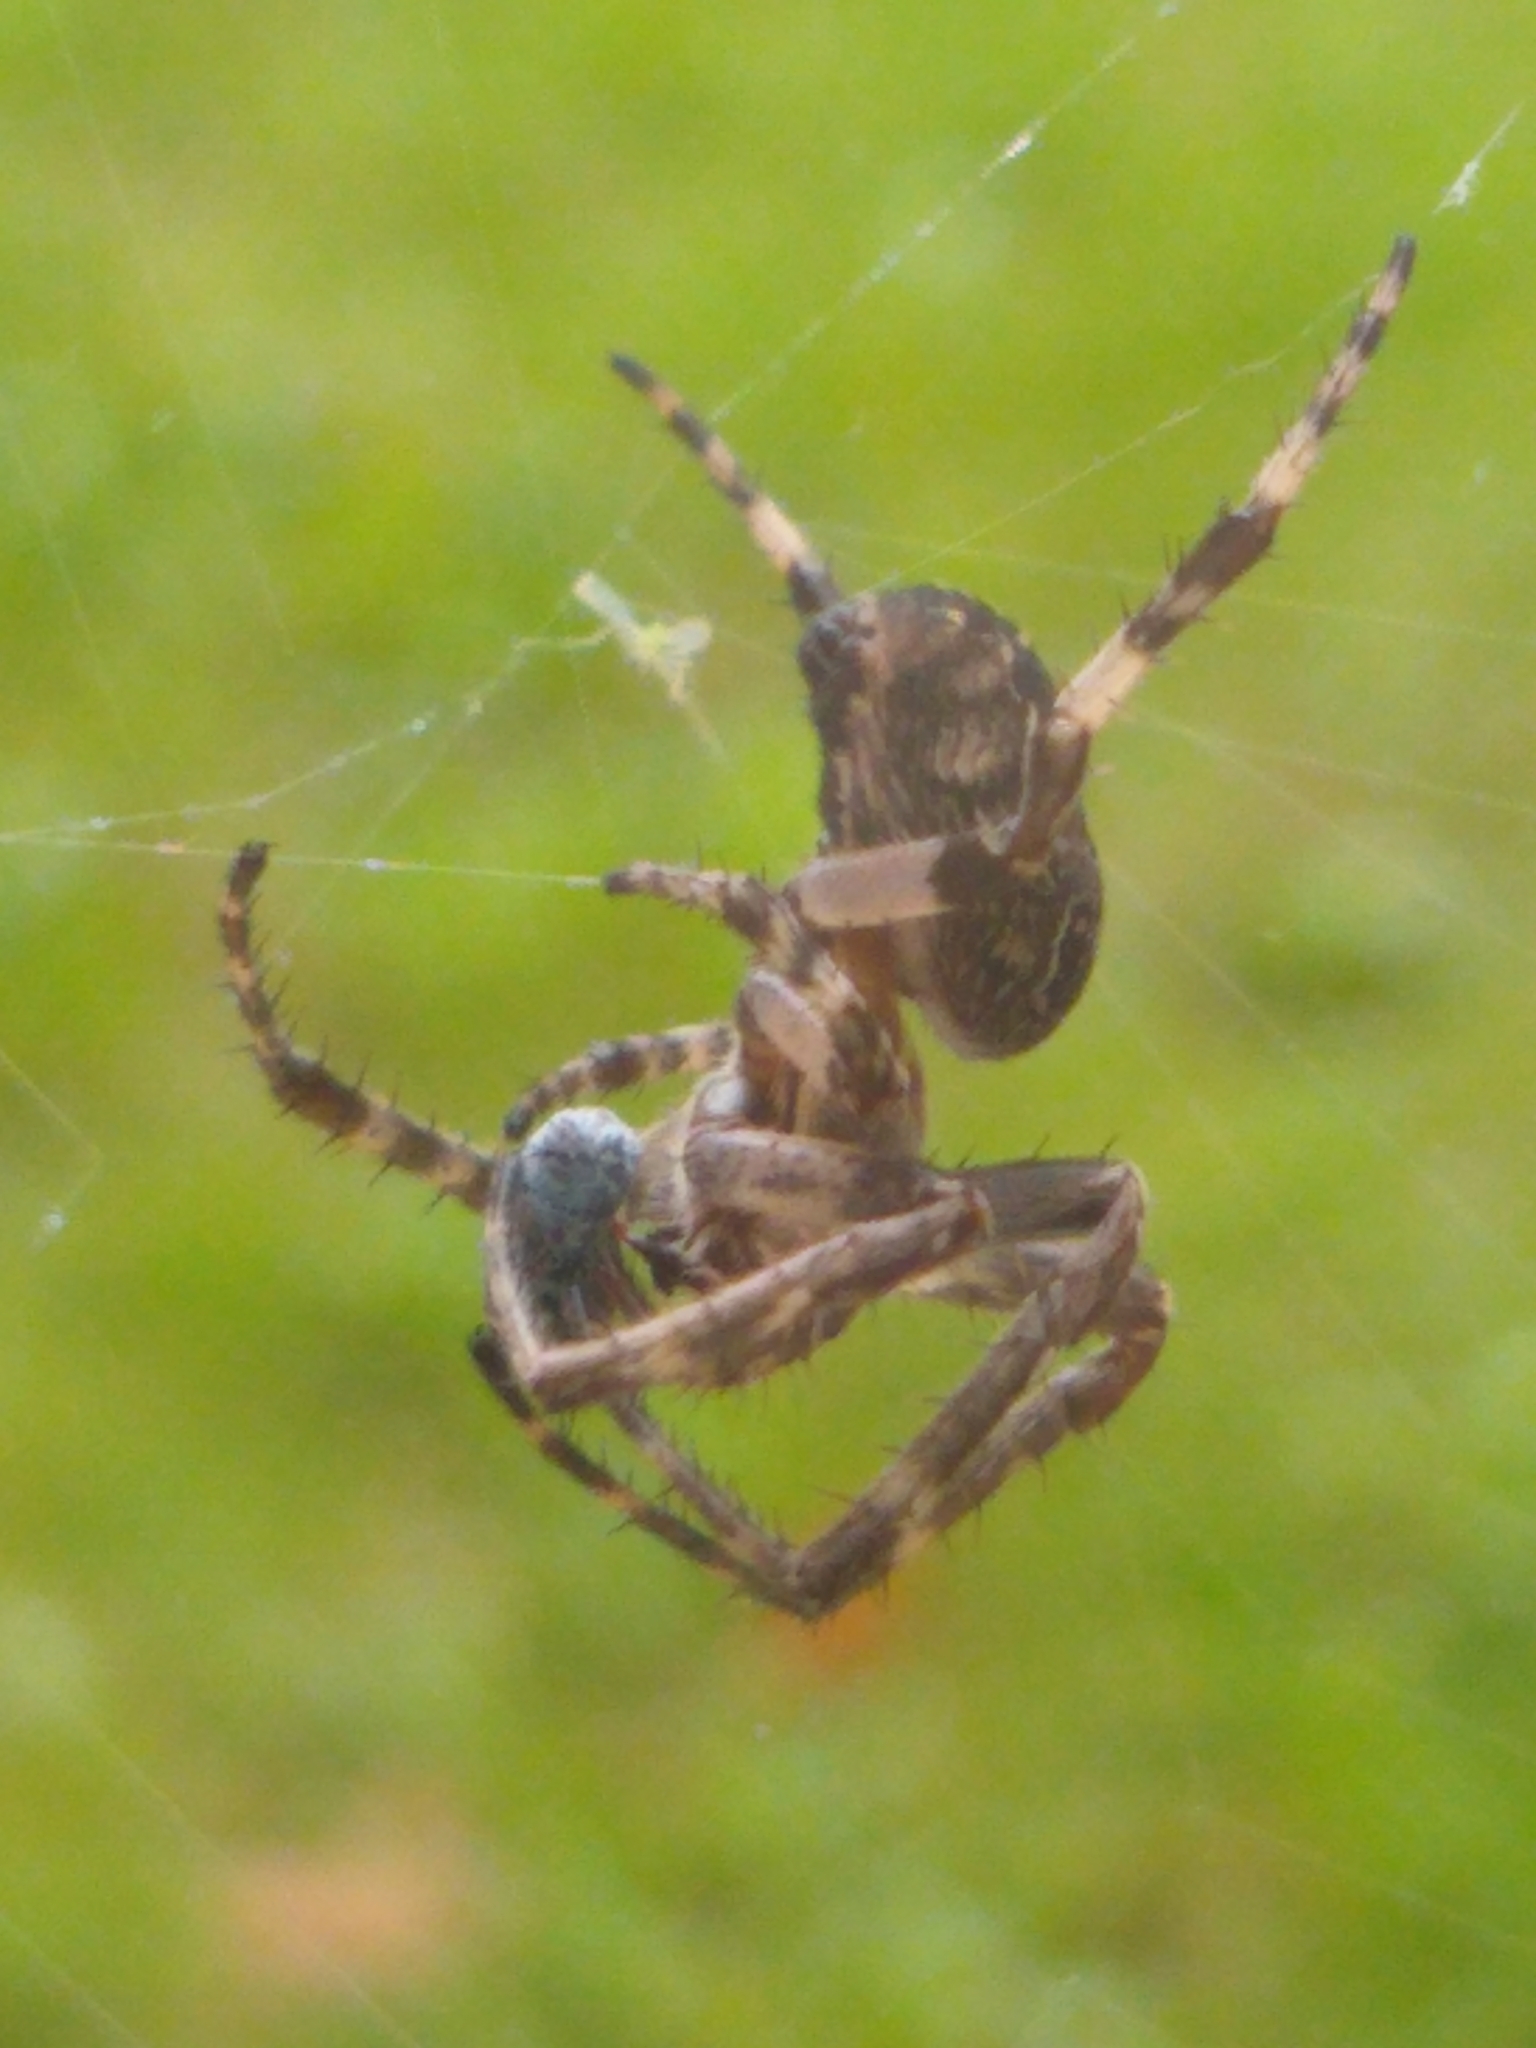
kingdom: Animalia
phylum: Arthropoda
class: Arachnida
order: Araneae
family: Araneidae
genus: Larinioides
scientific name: Larinioides sclopetarius
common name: Bridge orbweaver
